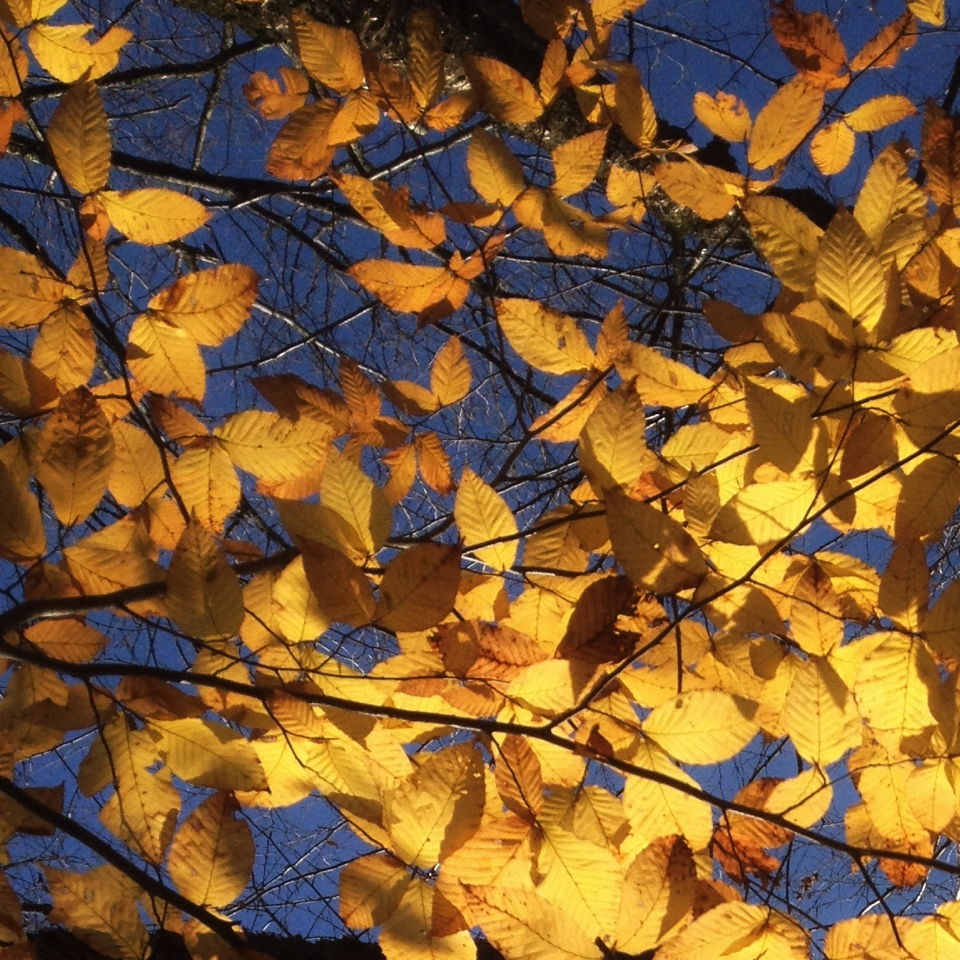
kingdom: Plantae
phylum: Tracheophyta
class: Magnoliopsida
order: Fagales
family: Fagaceae
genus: Fagus
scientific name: Fagus grandifolia
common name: American beech
